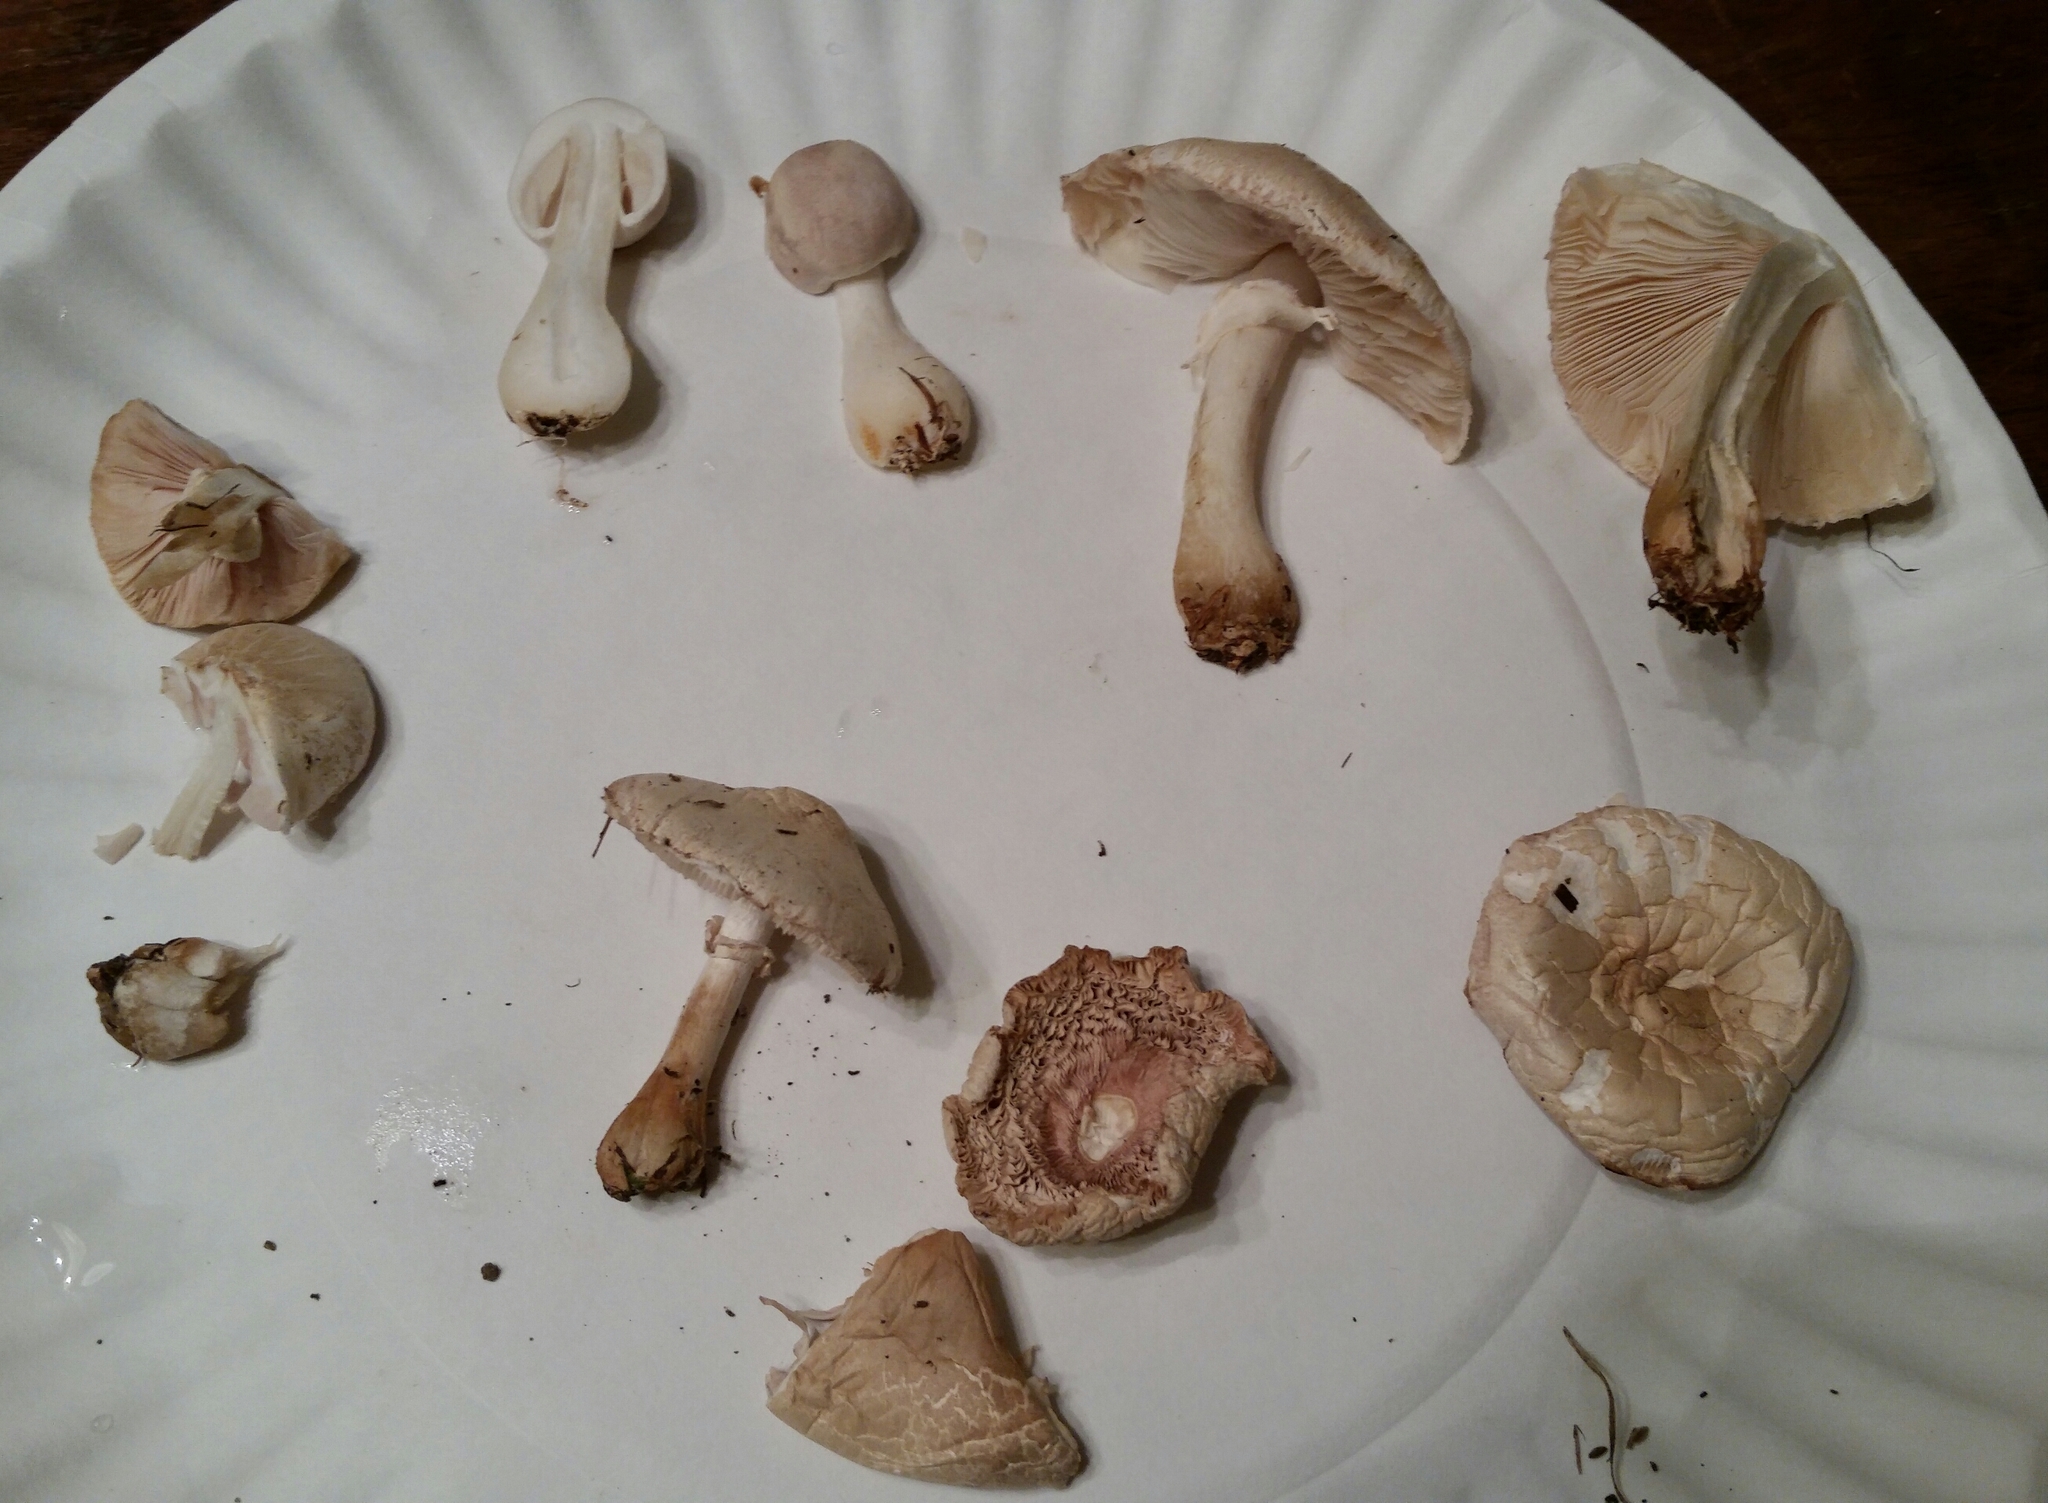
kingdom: Fungi
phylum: Basidiomycota
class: Agaricomycetes
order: Agaricales
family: Agaricaceae
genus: Leucoagaricus
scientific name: Leucoagaricus leucothites
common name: White dapperling
